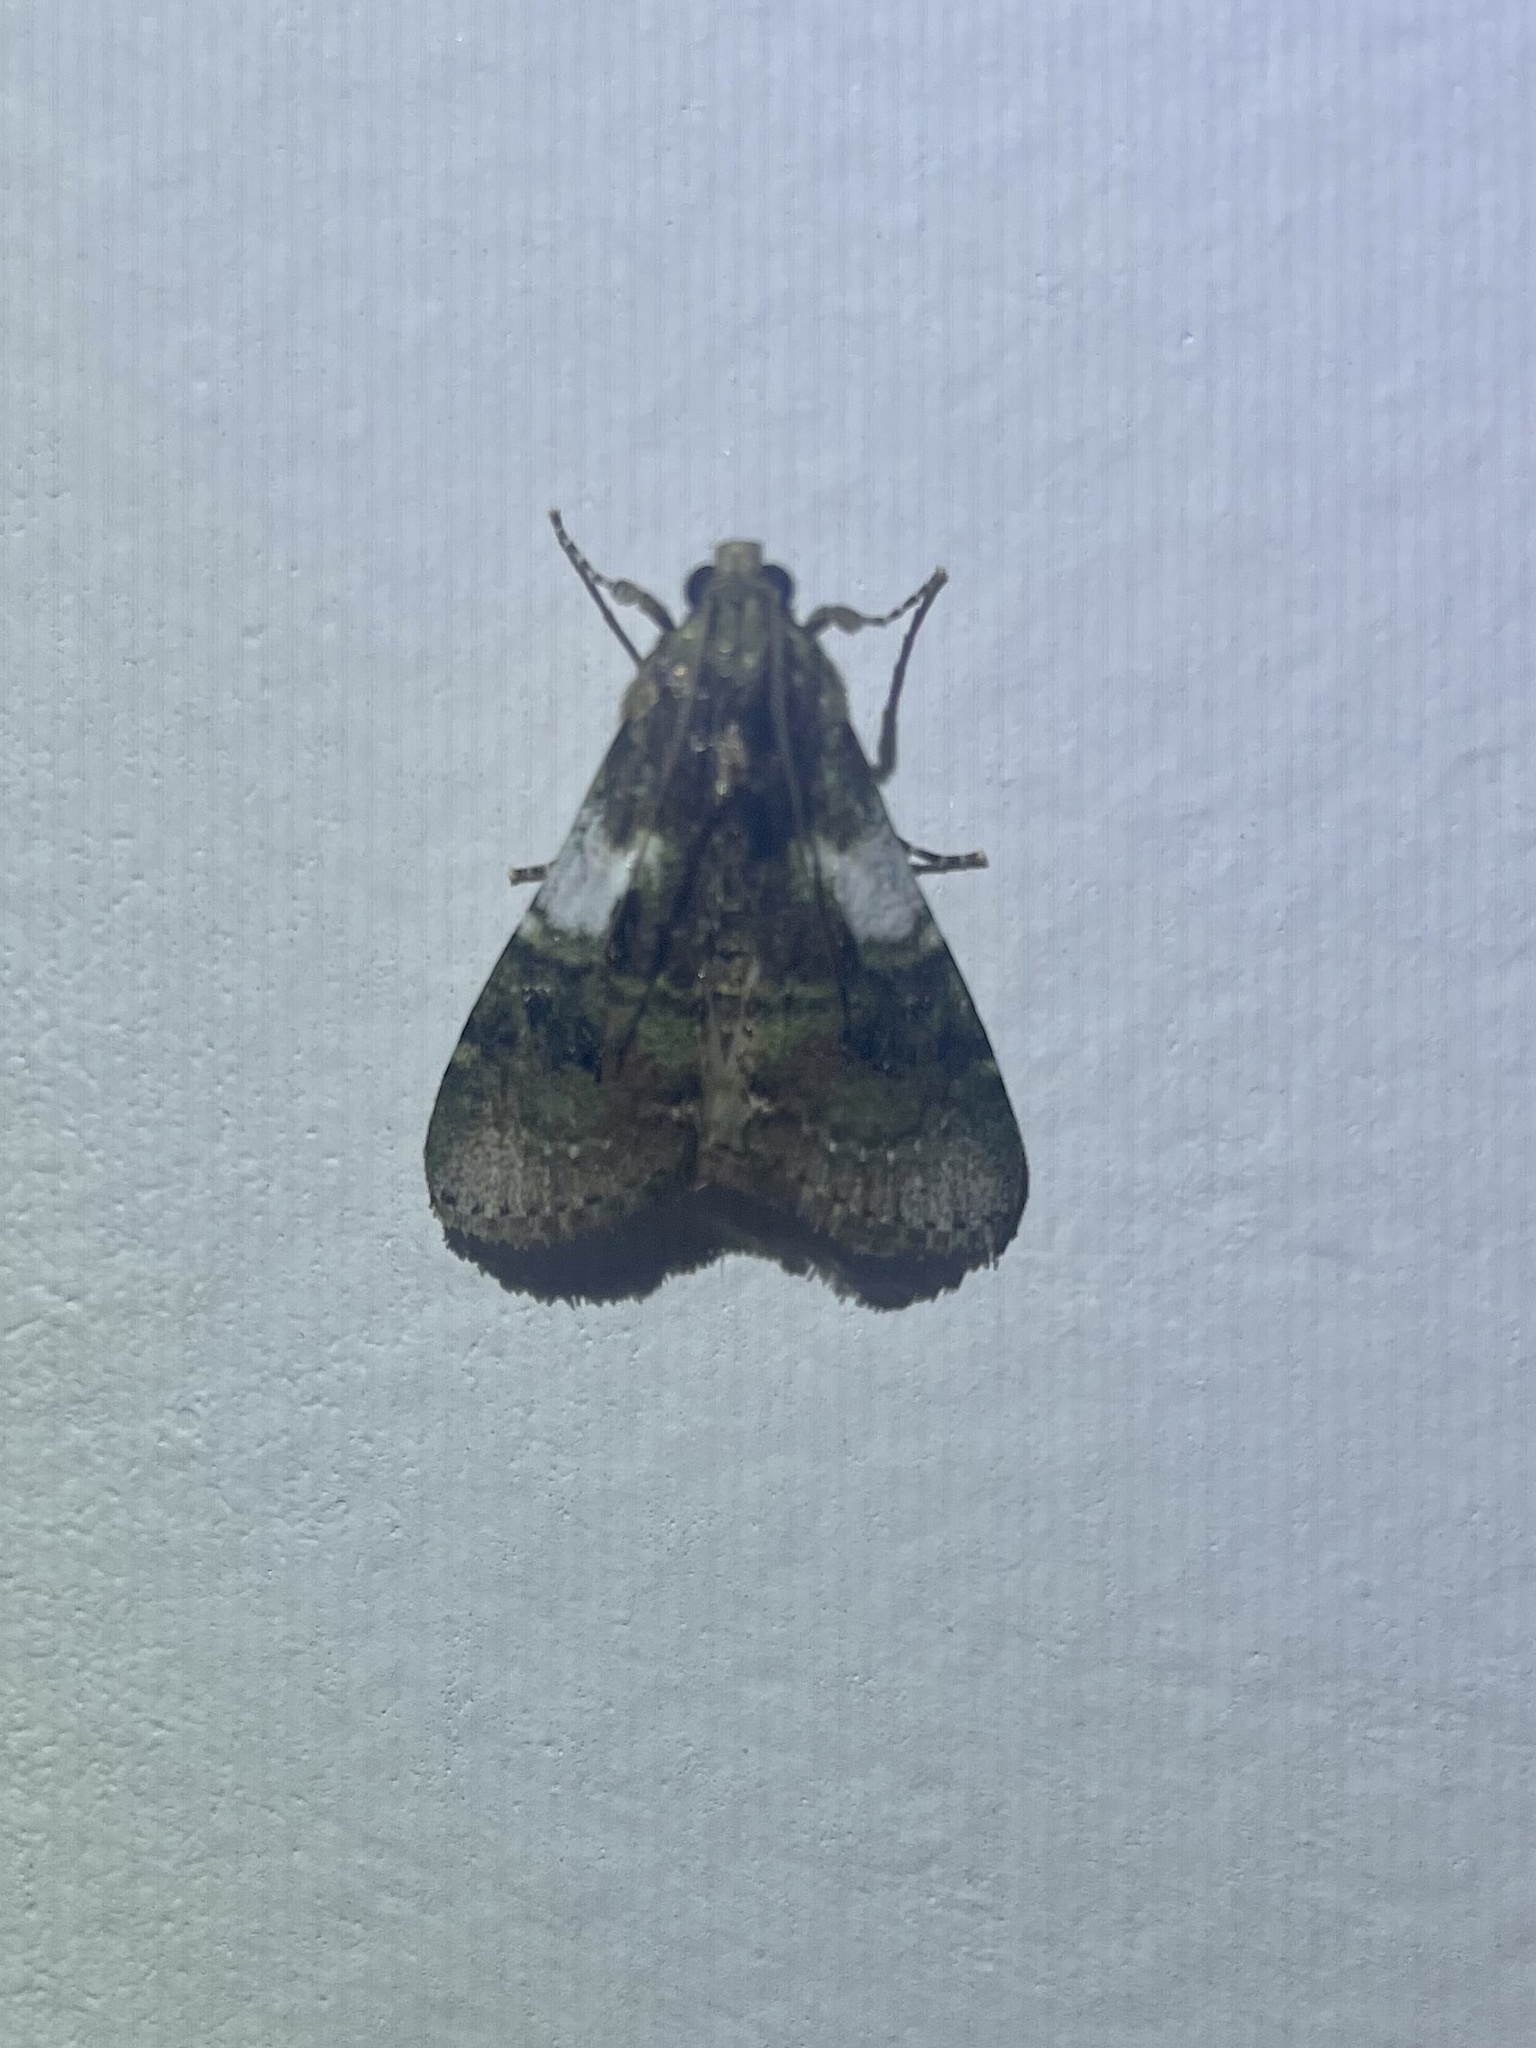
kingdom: Animalia
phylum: Arthropoda
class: Insecta
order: Lepidoptera
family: Pyralidae
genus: Accinctapubes
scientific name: Accinctapubes albifasciata
